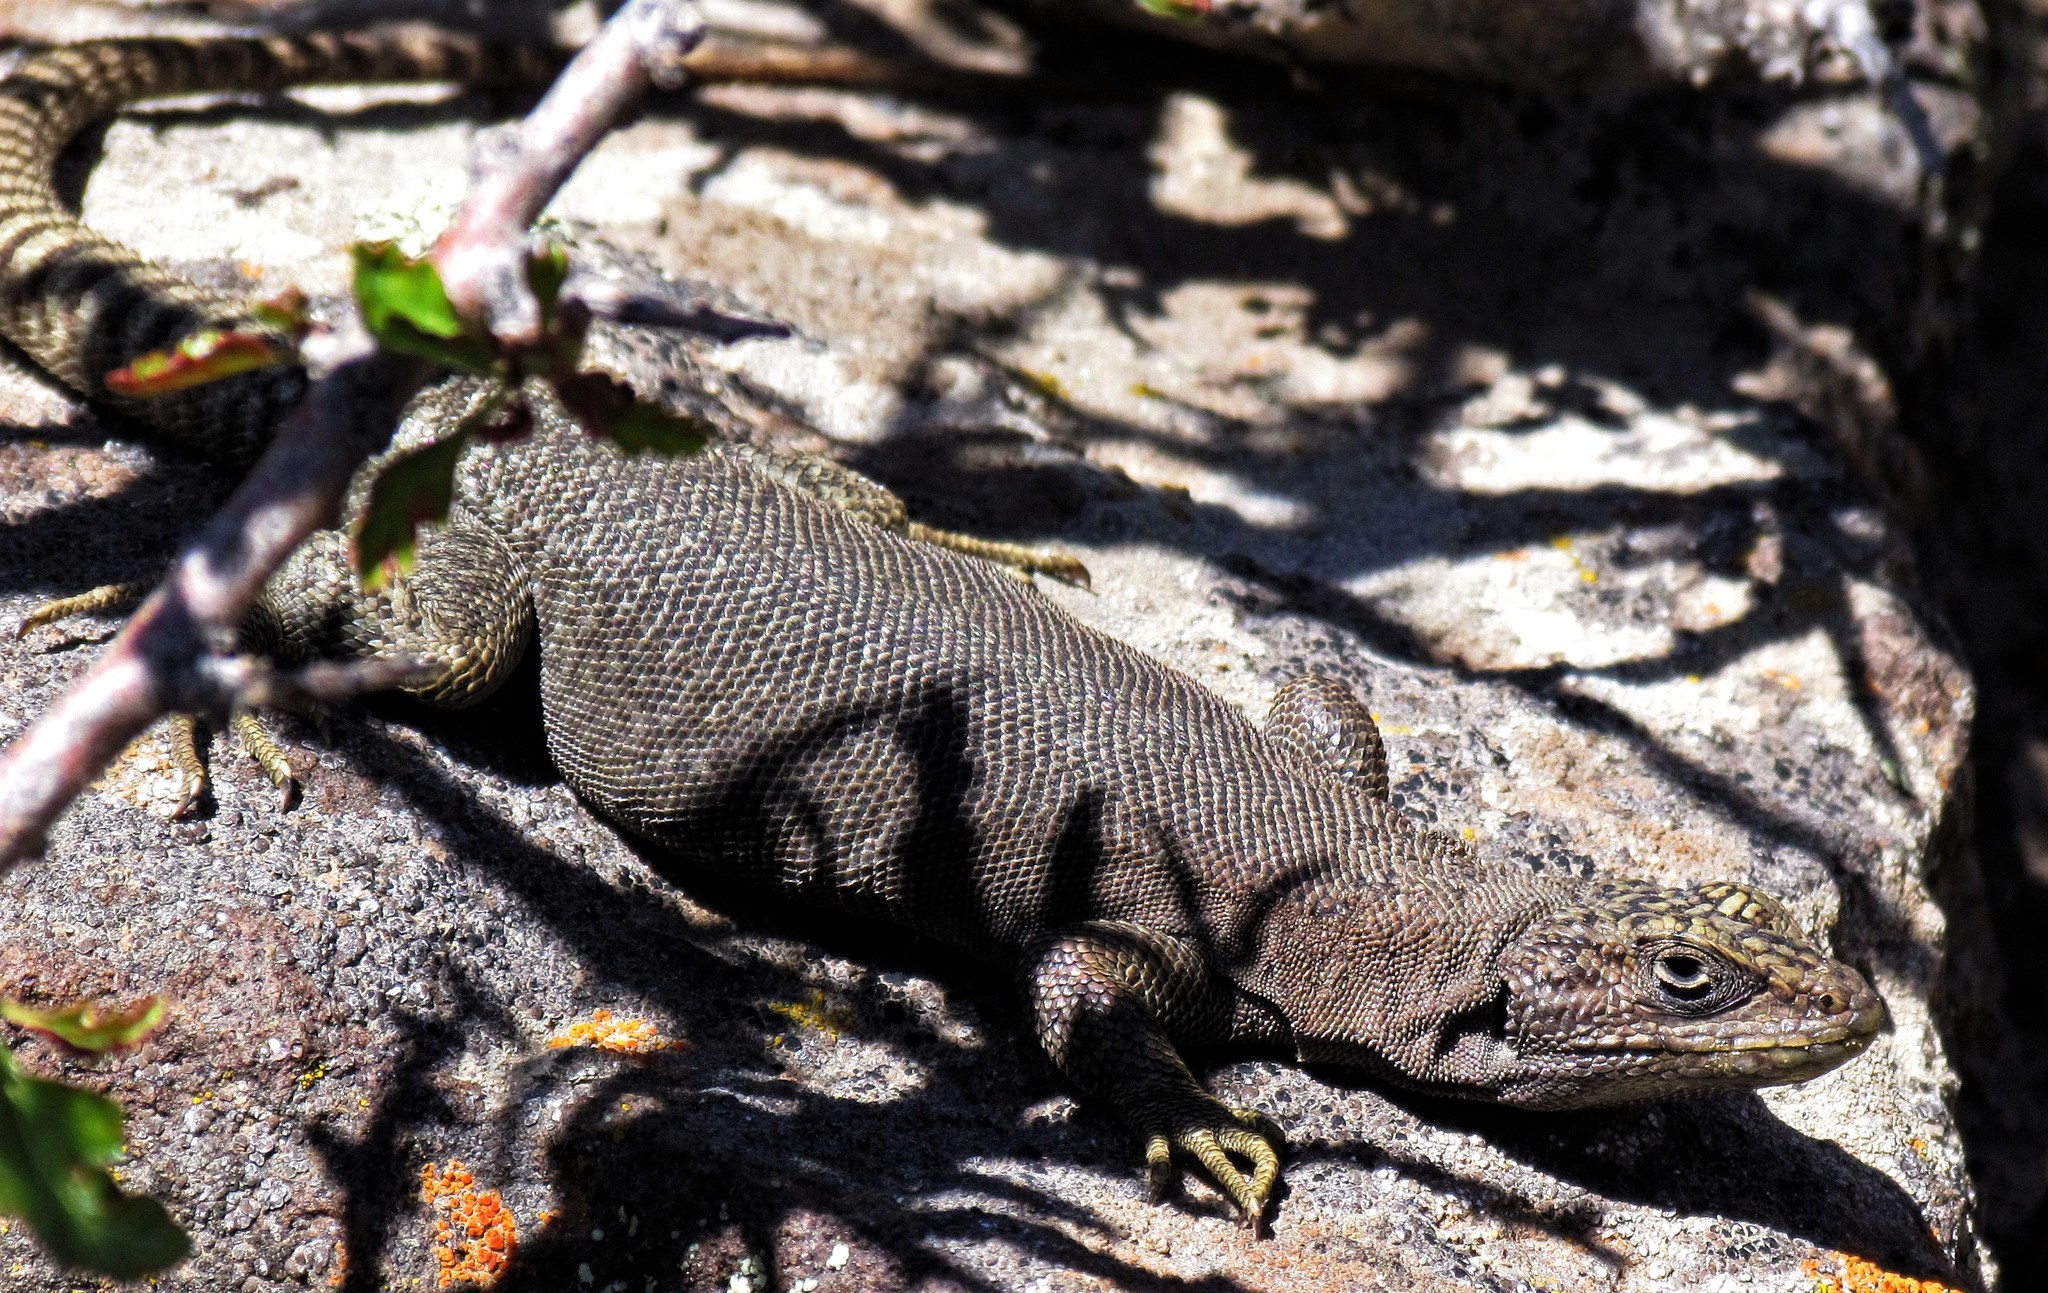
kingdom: Animalia
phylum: Chordata
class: Squamata
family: Liolaemidae
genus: Liolaemus
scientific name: Liolaemus petrophilus
